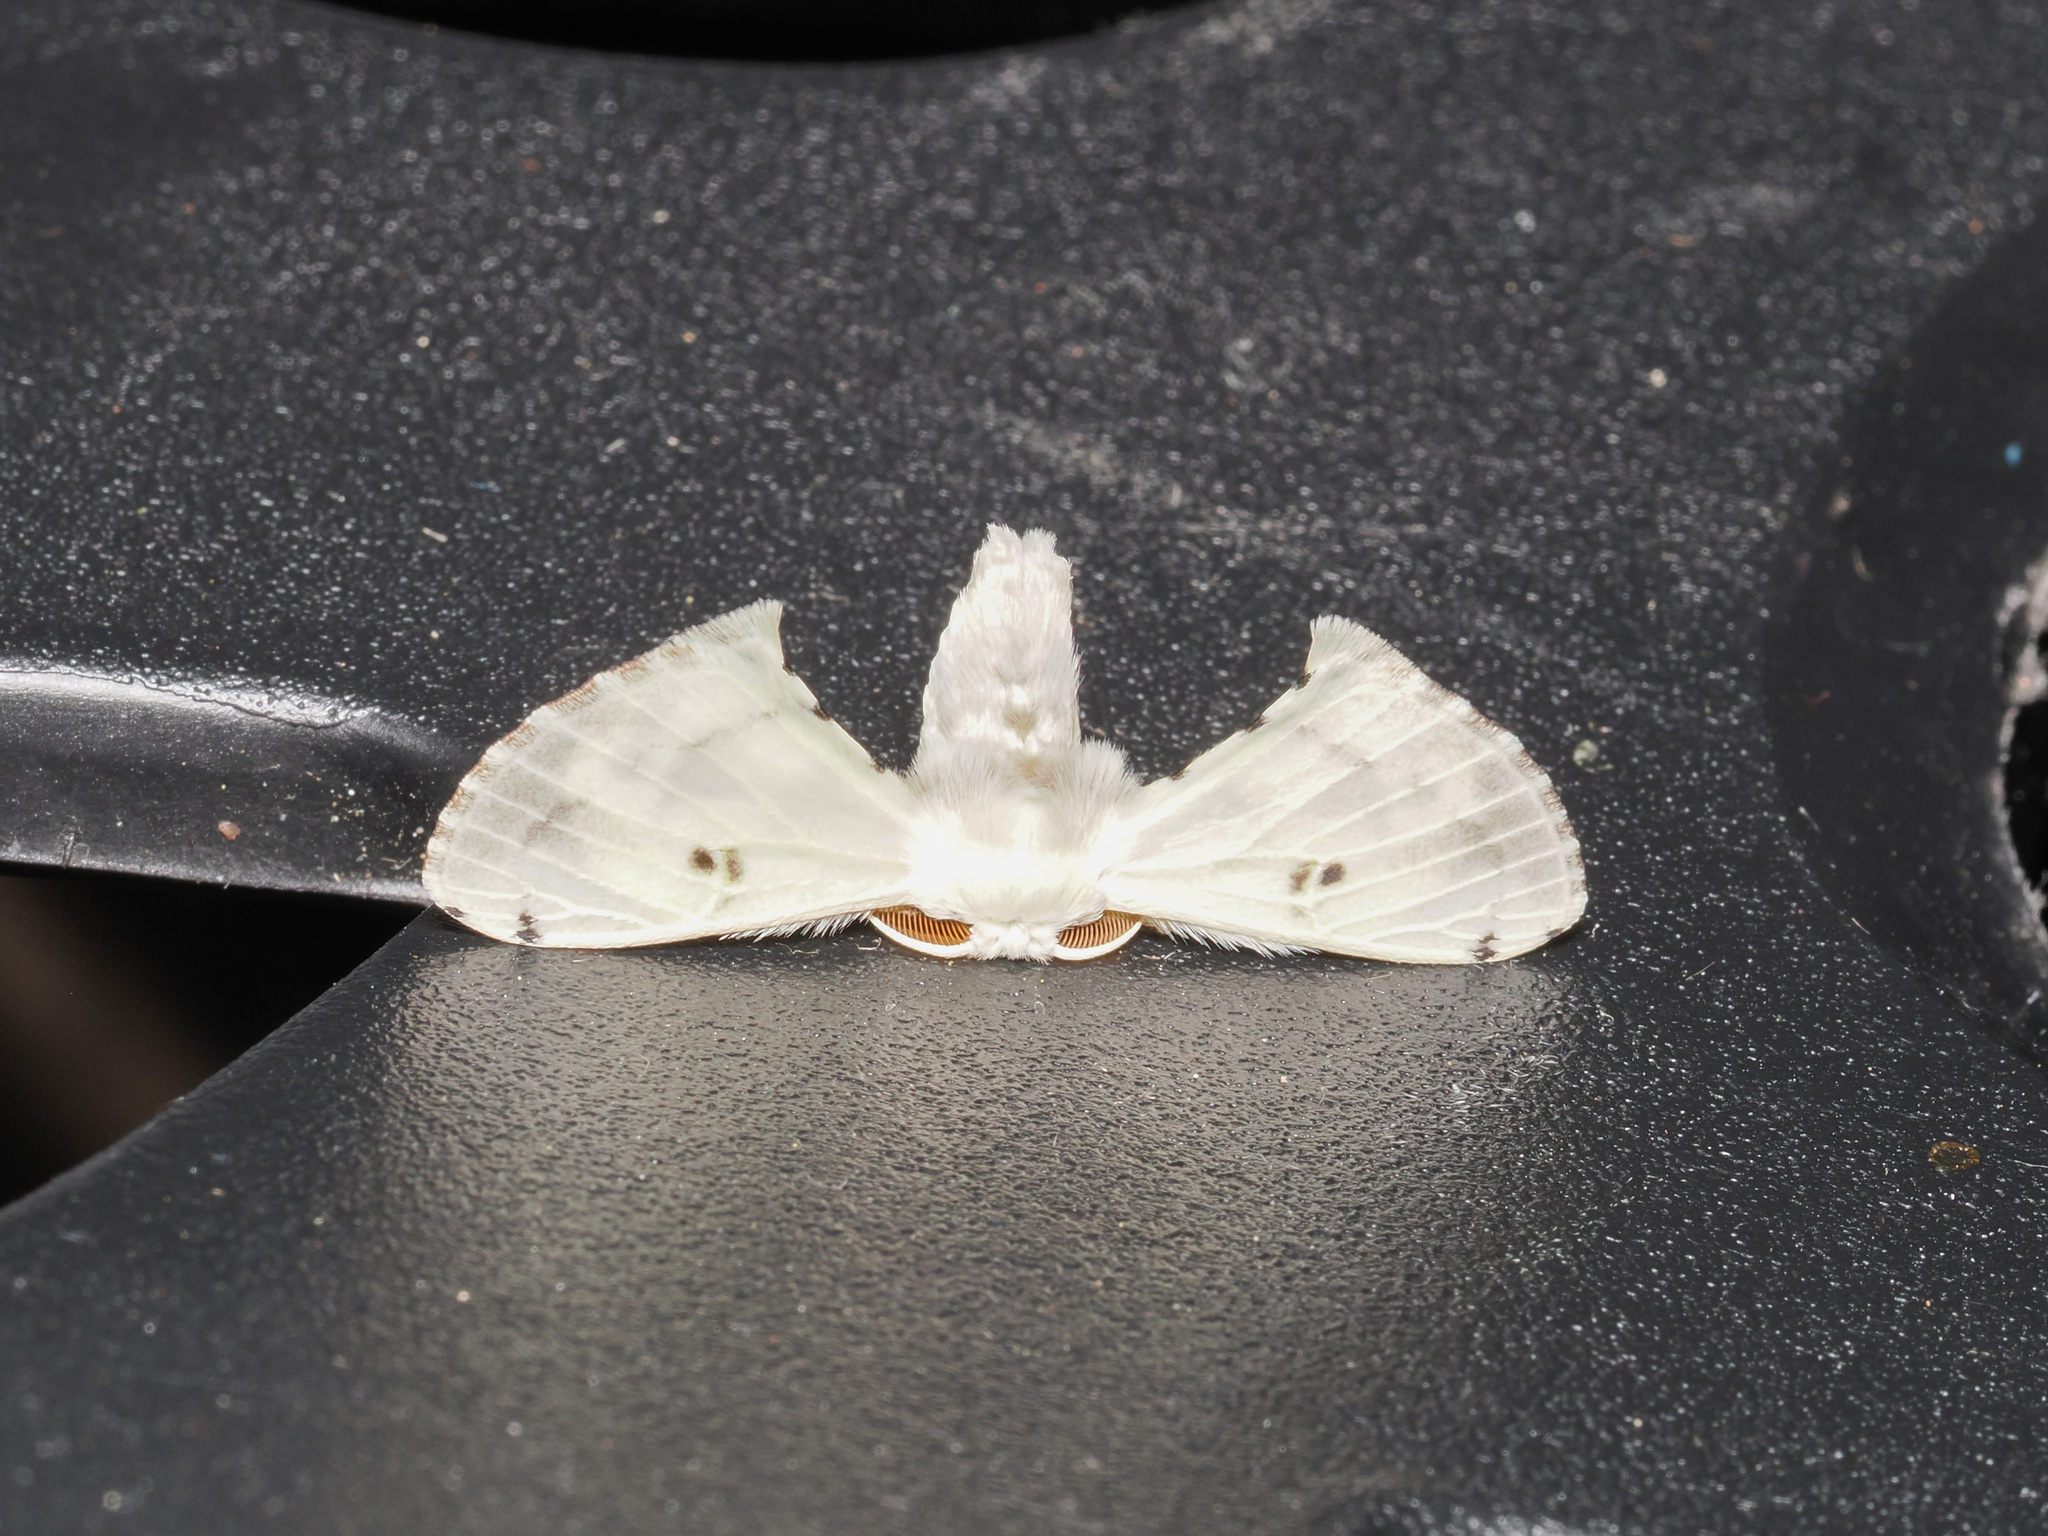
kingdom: Animalia
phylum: Arthropoda
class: Insecta
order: Lepidoptera
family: Bombycidae
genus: Penicillifera
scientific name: Penicillifera apicalis
